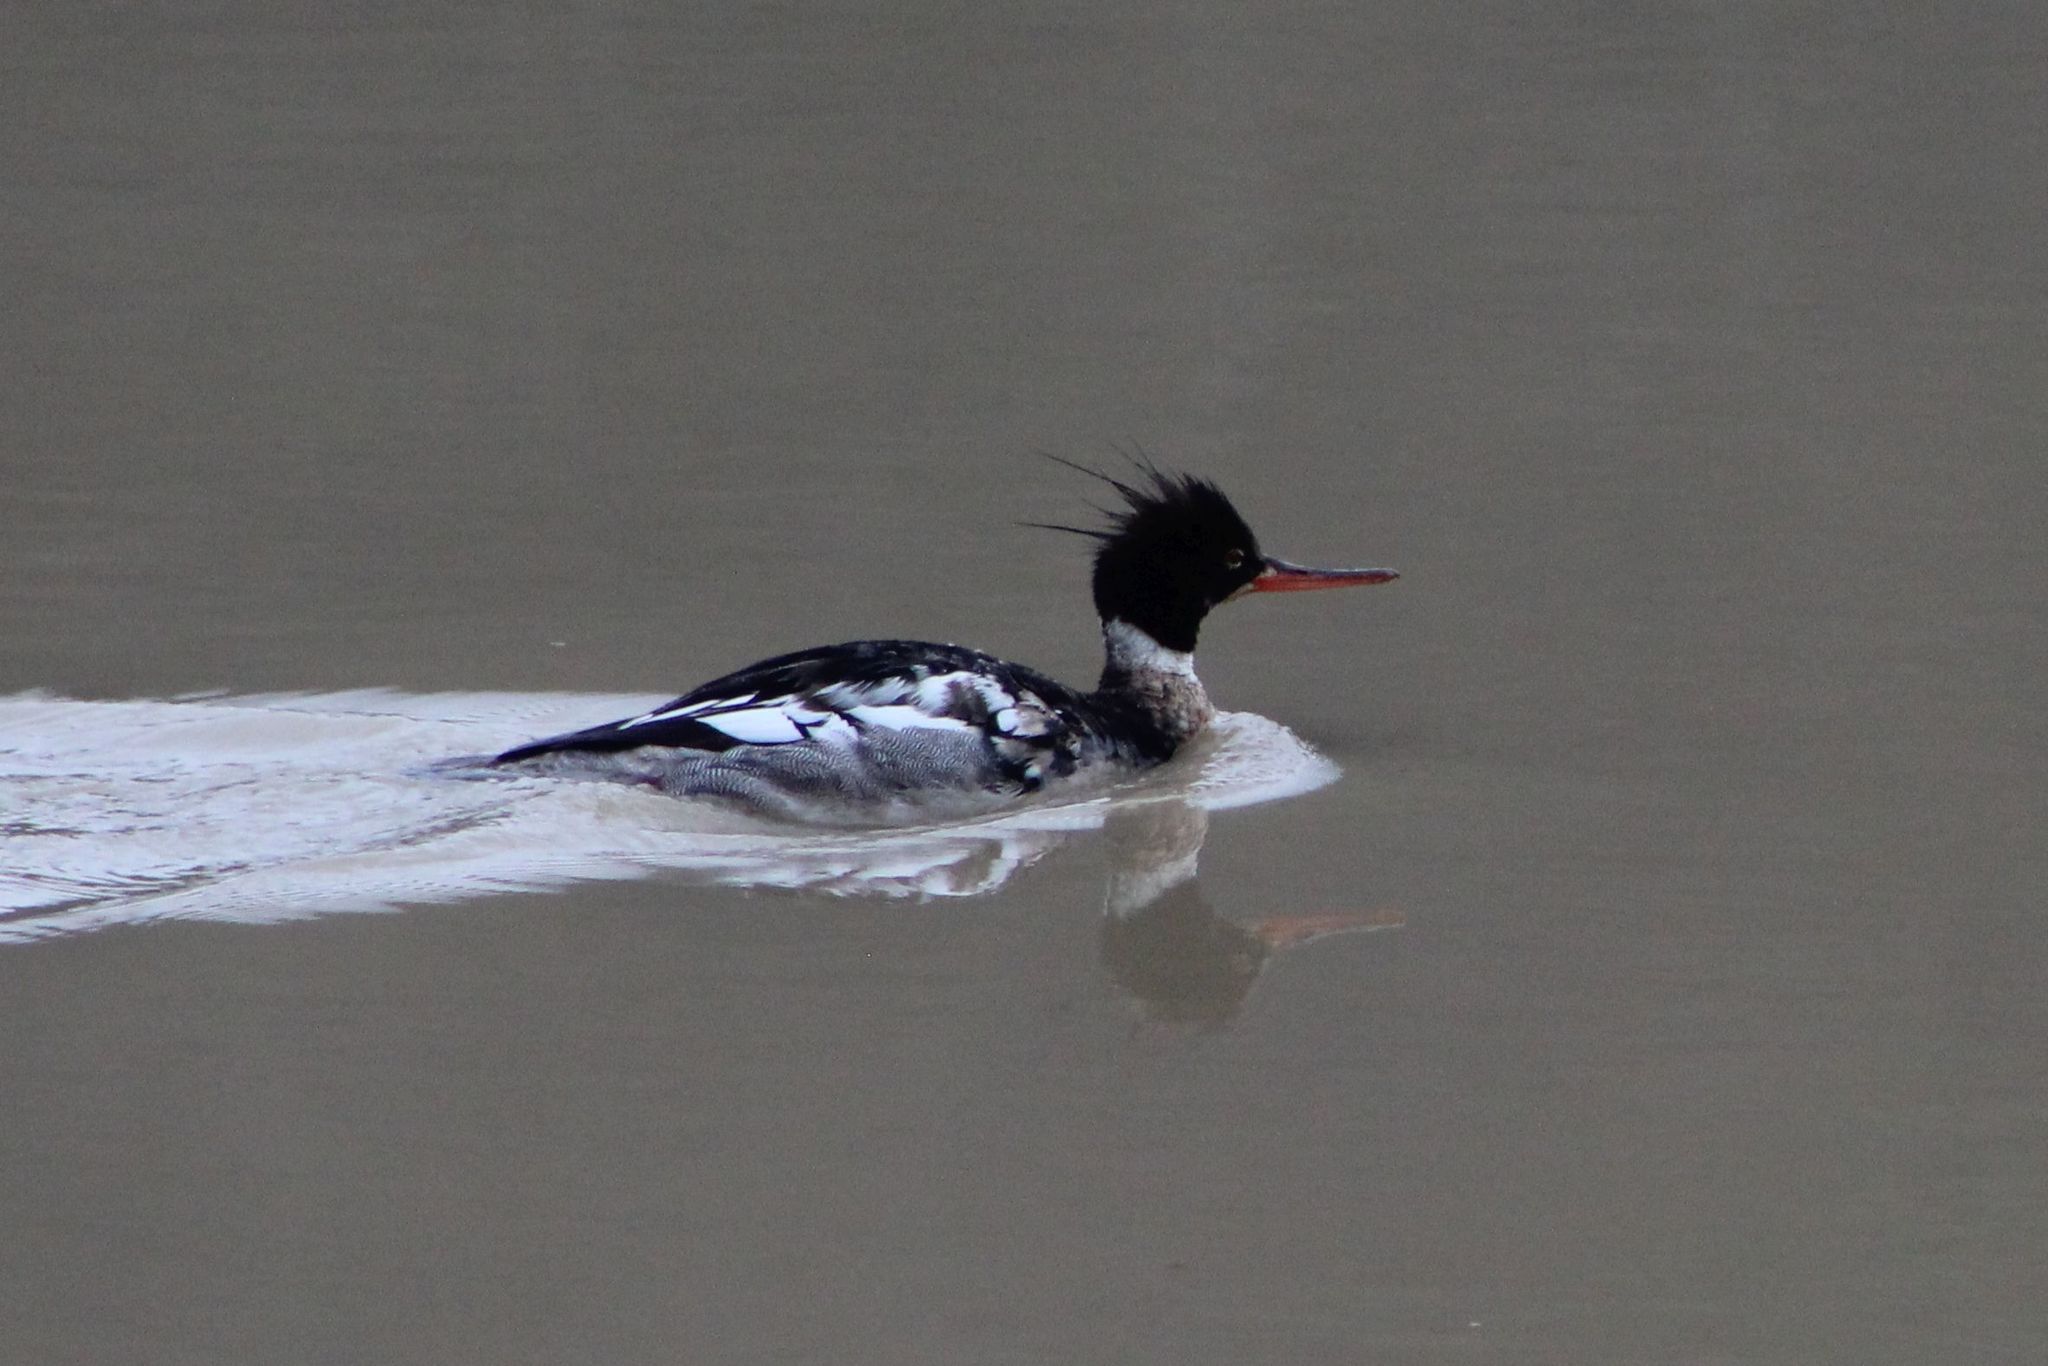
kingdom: Animalia
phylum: Chordata
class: Aves
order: Anseriformes
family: Anatidae
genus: Mergus
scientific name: Mergus serrator
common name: Red-breasted merganser
